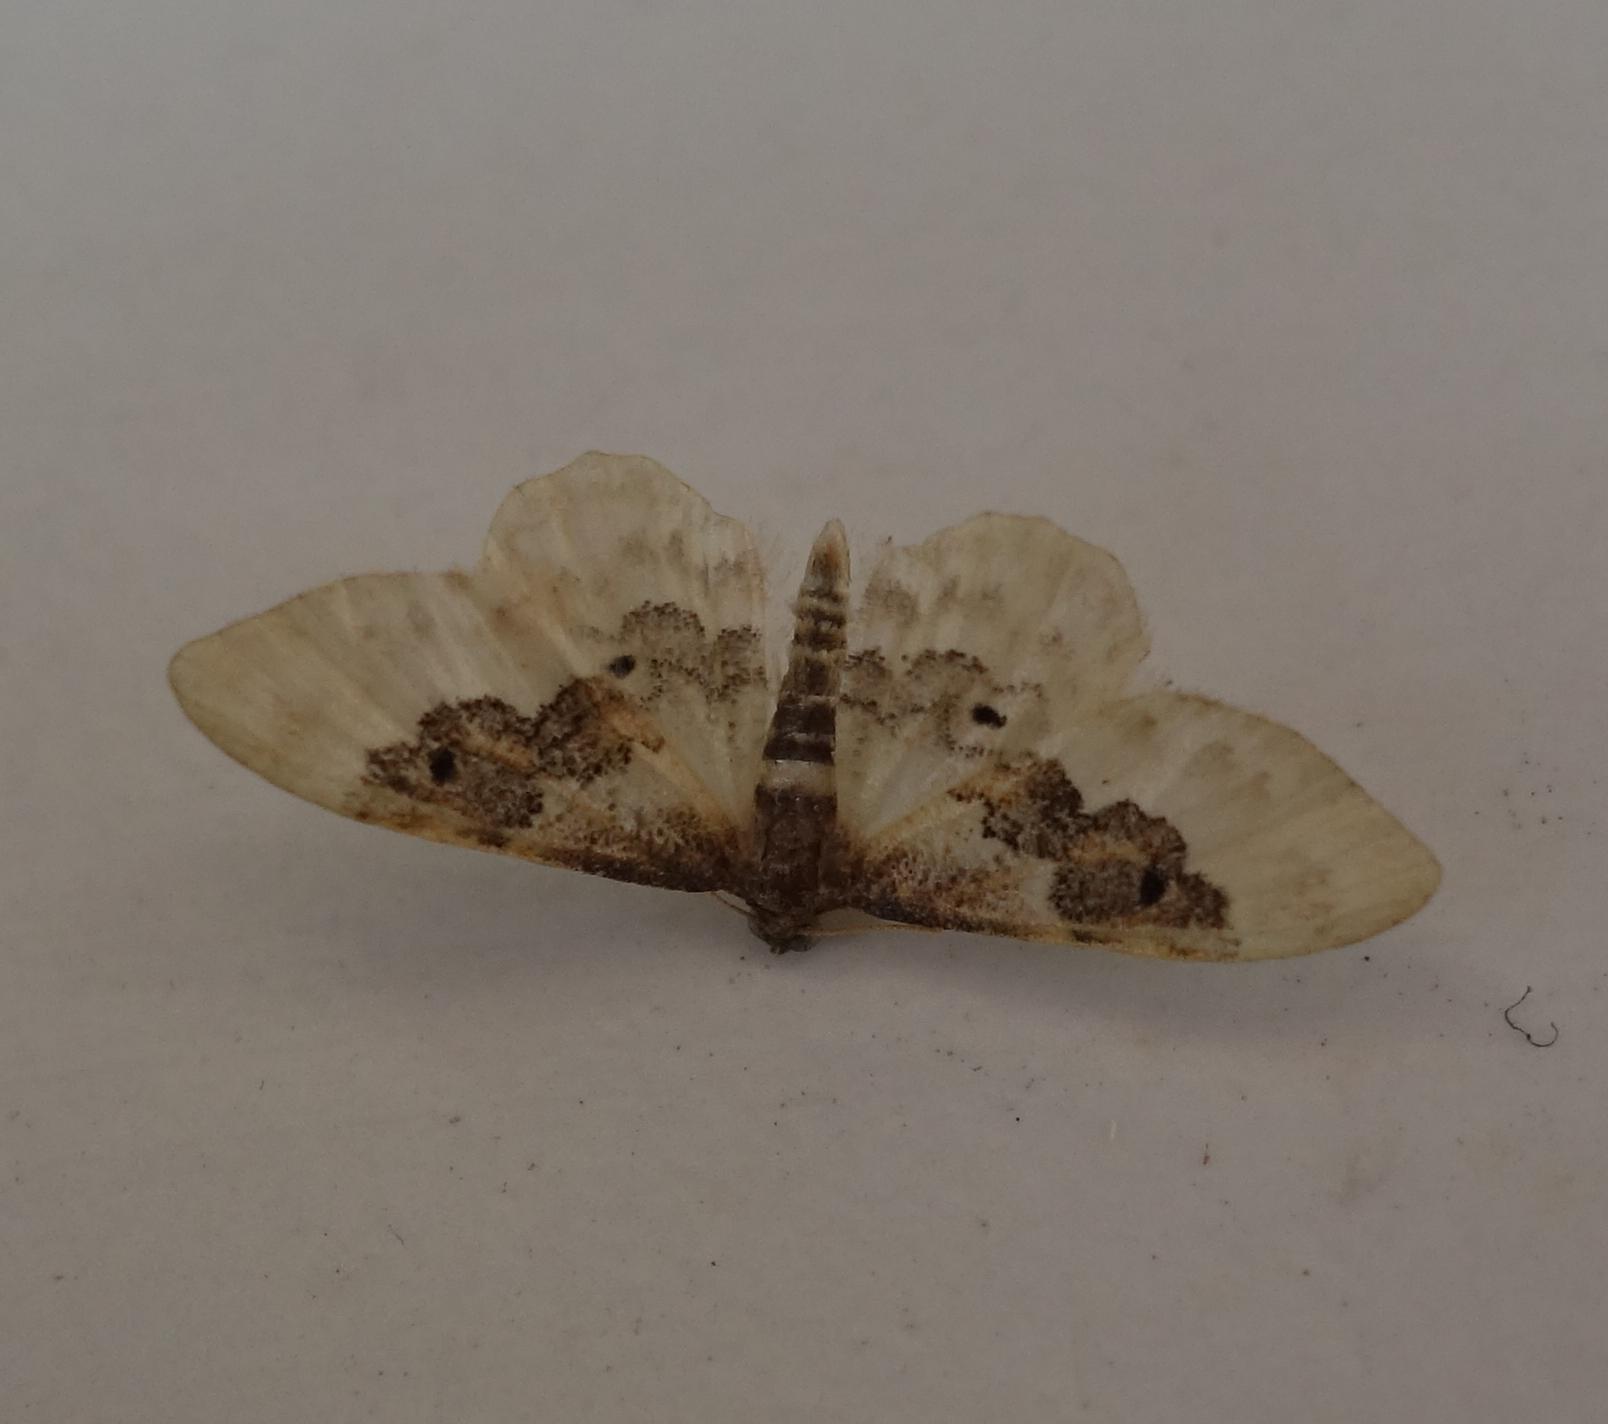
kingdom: Animalia
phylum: Arthropoda
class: Insecta
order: Lepidoptera
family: Geometridae
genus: Idaea
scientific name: Idaea rusticata
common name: Least carpet
